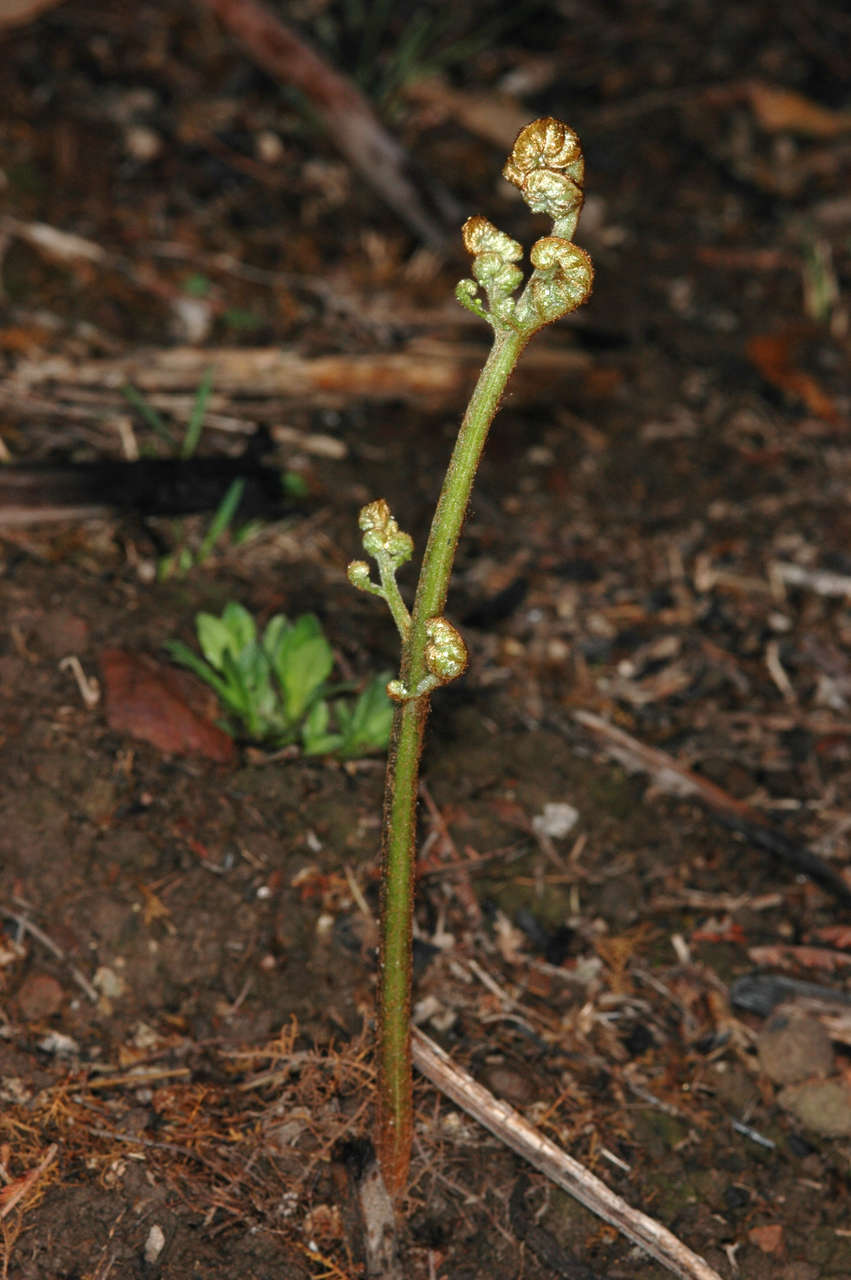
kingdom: Plantae
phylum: Tracheophyta
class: Polypodiopsida
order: Polypodiales
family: Dennstaedtiaceae
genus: Pteridium
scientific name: Pteridium esculentum
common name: Bracken fern
